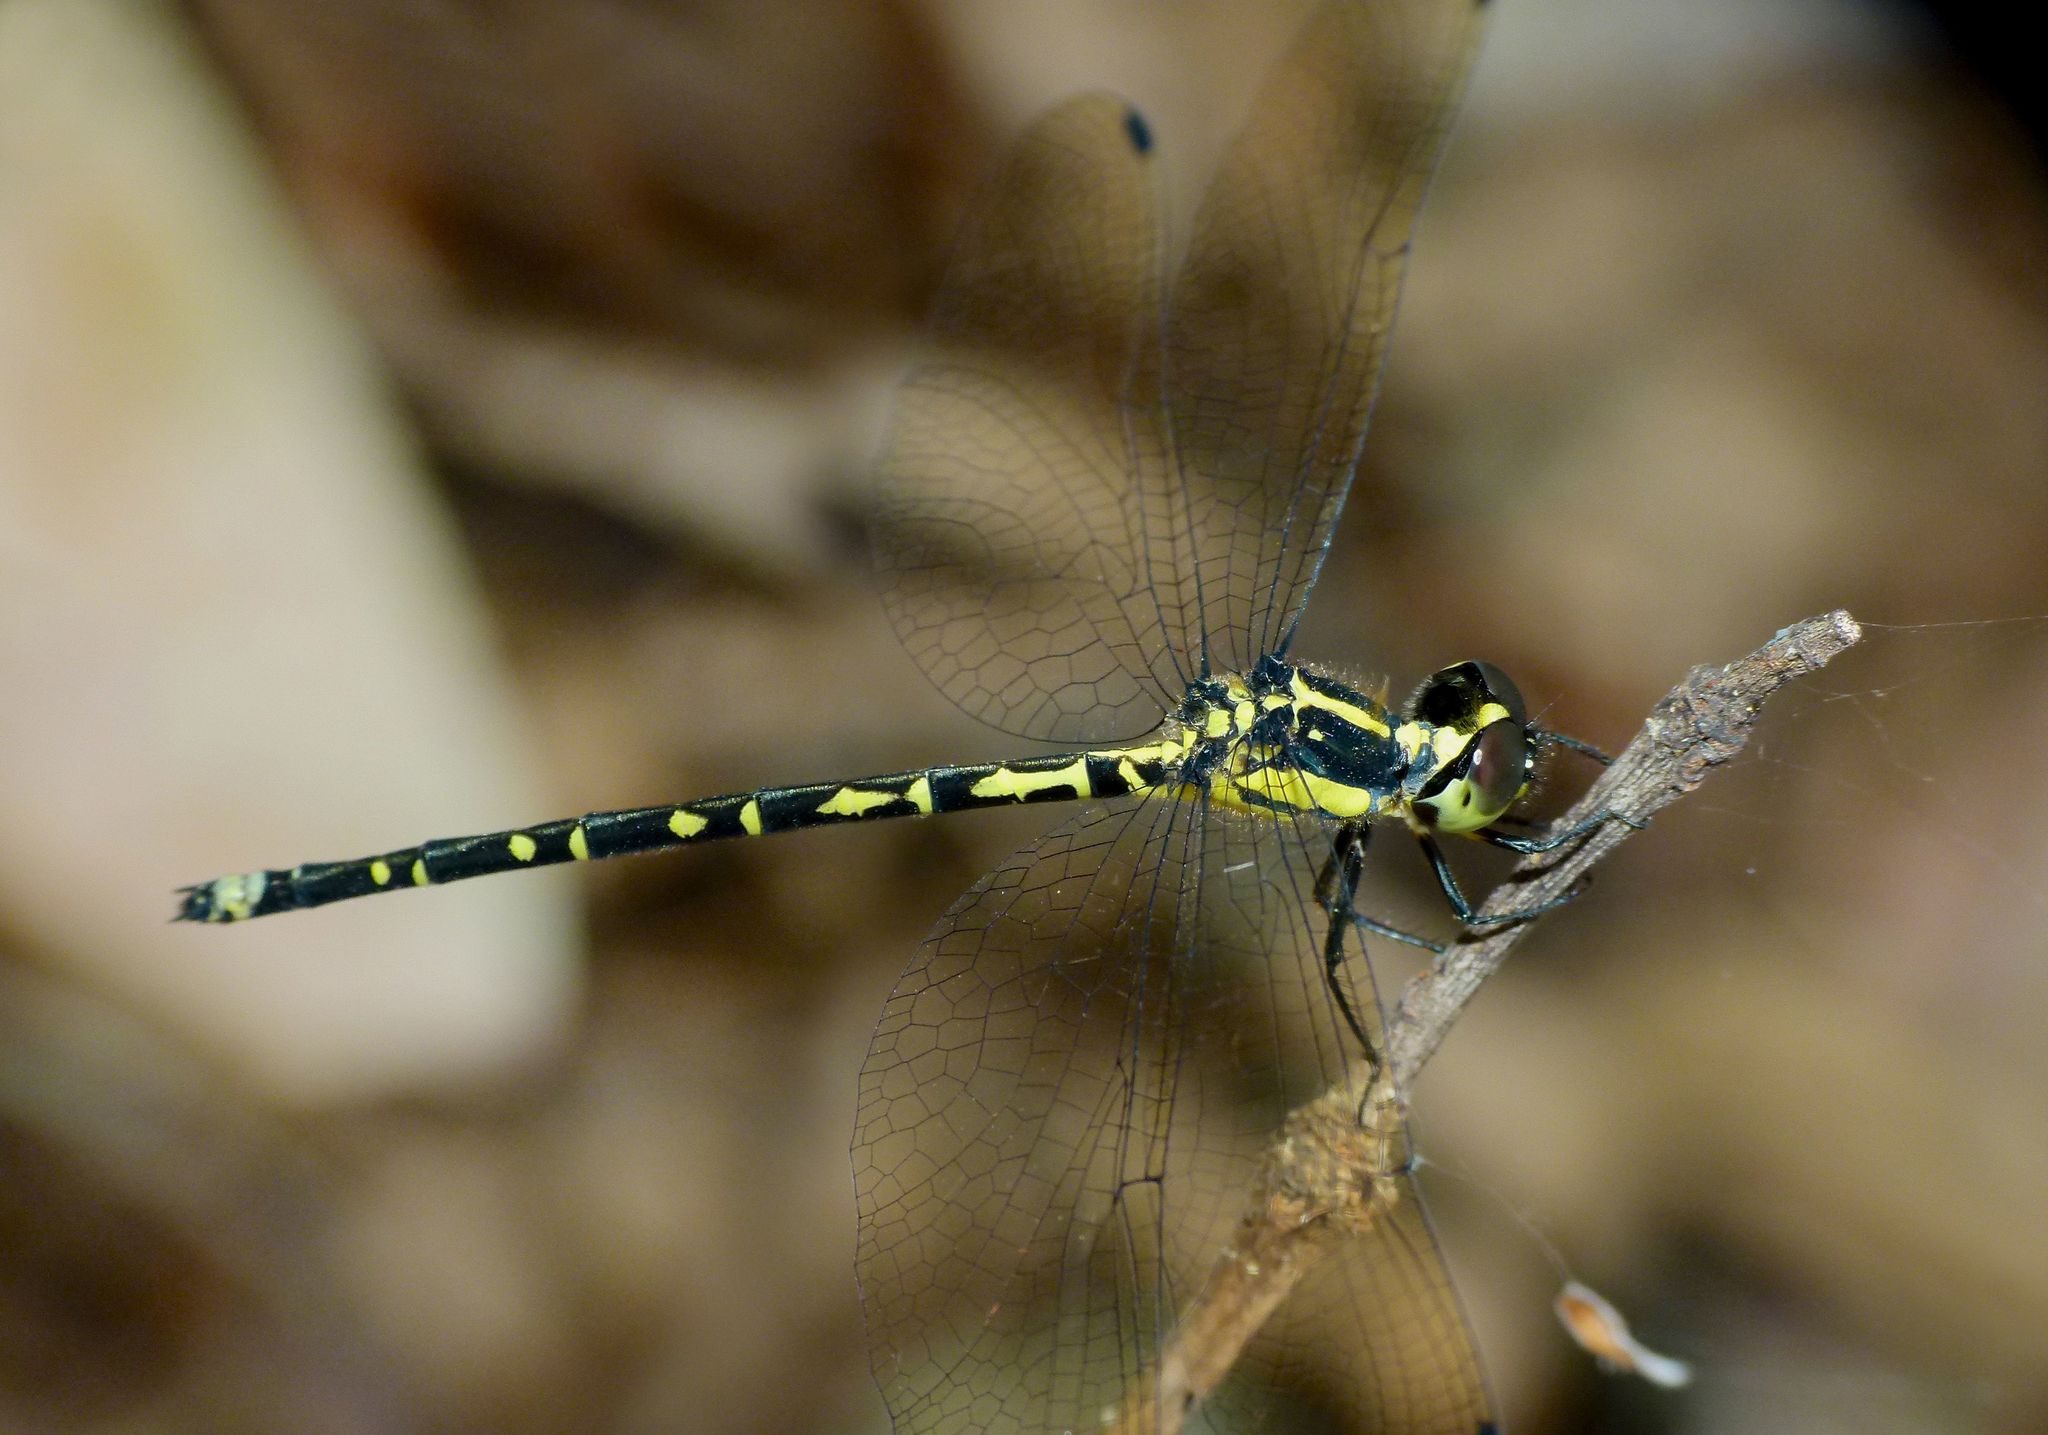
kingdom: Animalia
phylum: Arthropoda
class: Insecta
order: Odonata
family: Synthemistidae
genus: Choristhemis
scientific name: Choristhemis flavoterminata
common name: Yellow-tipped tigertail
